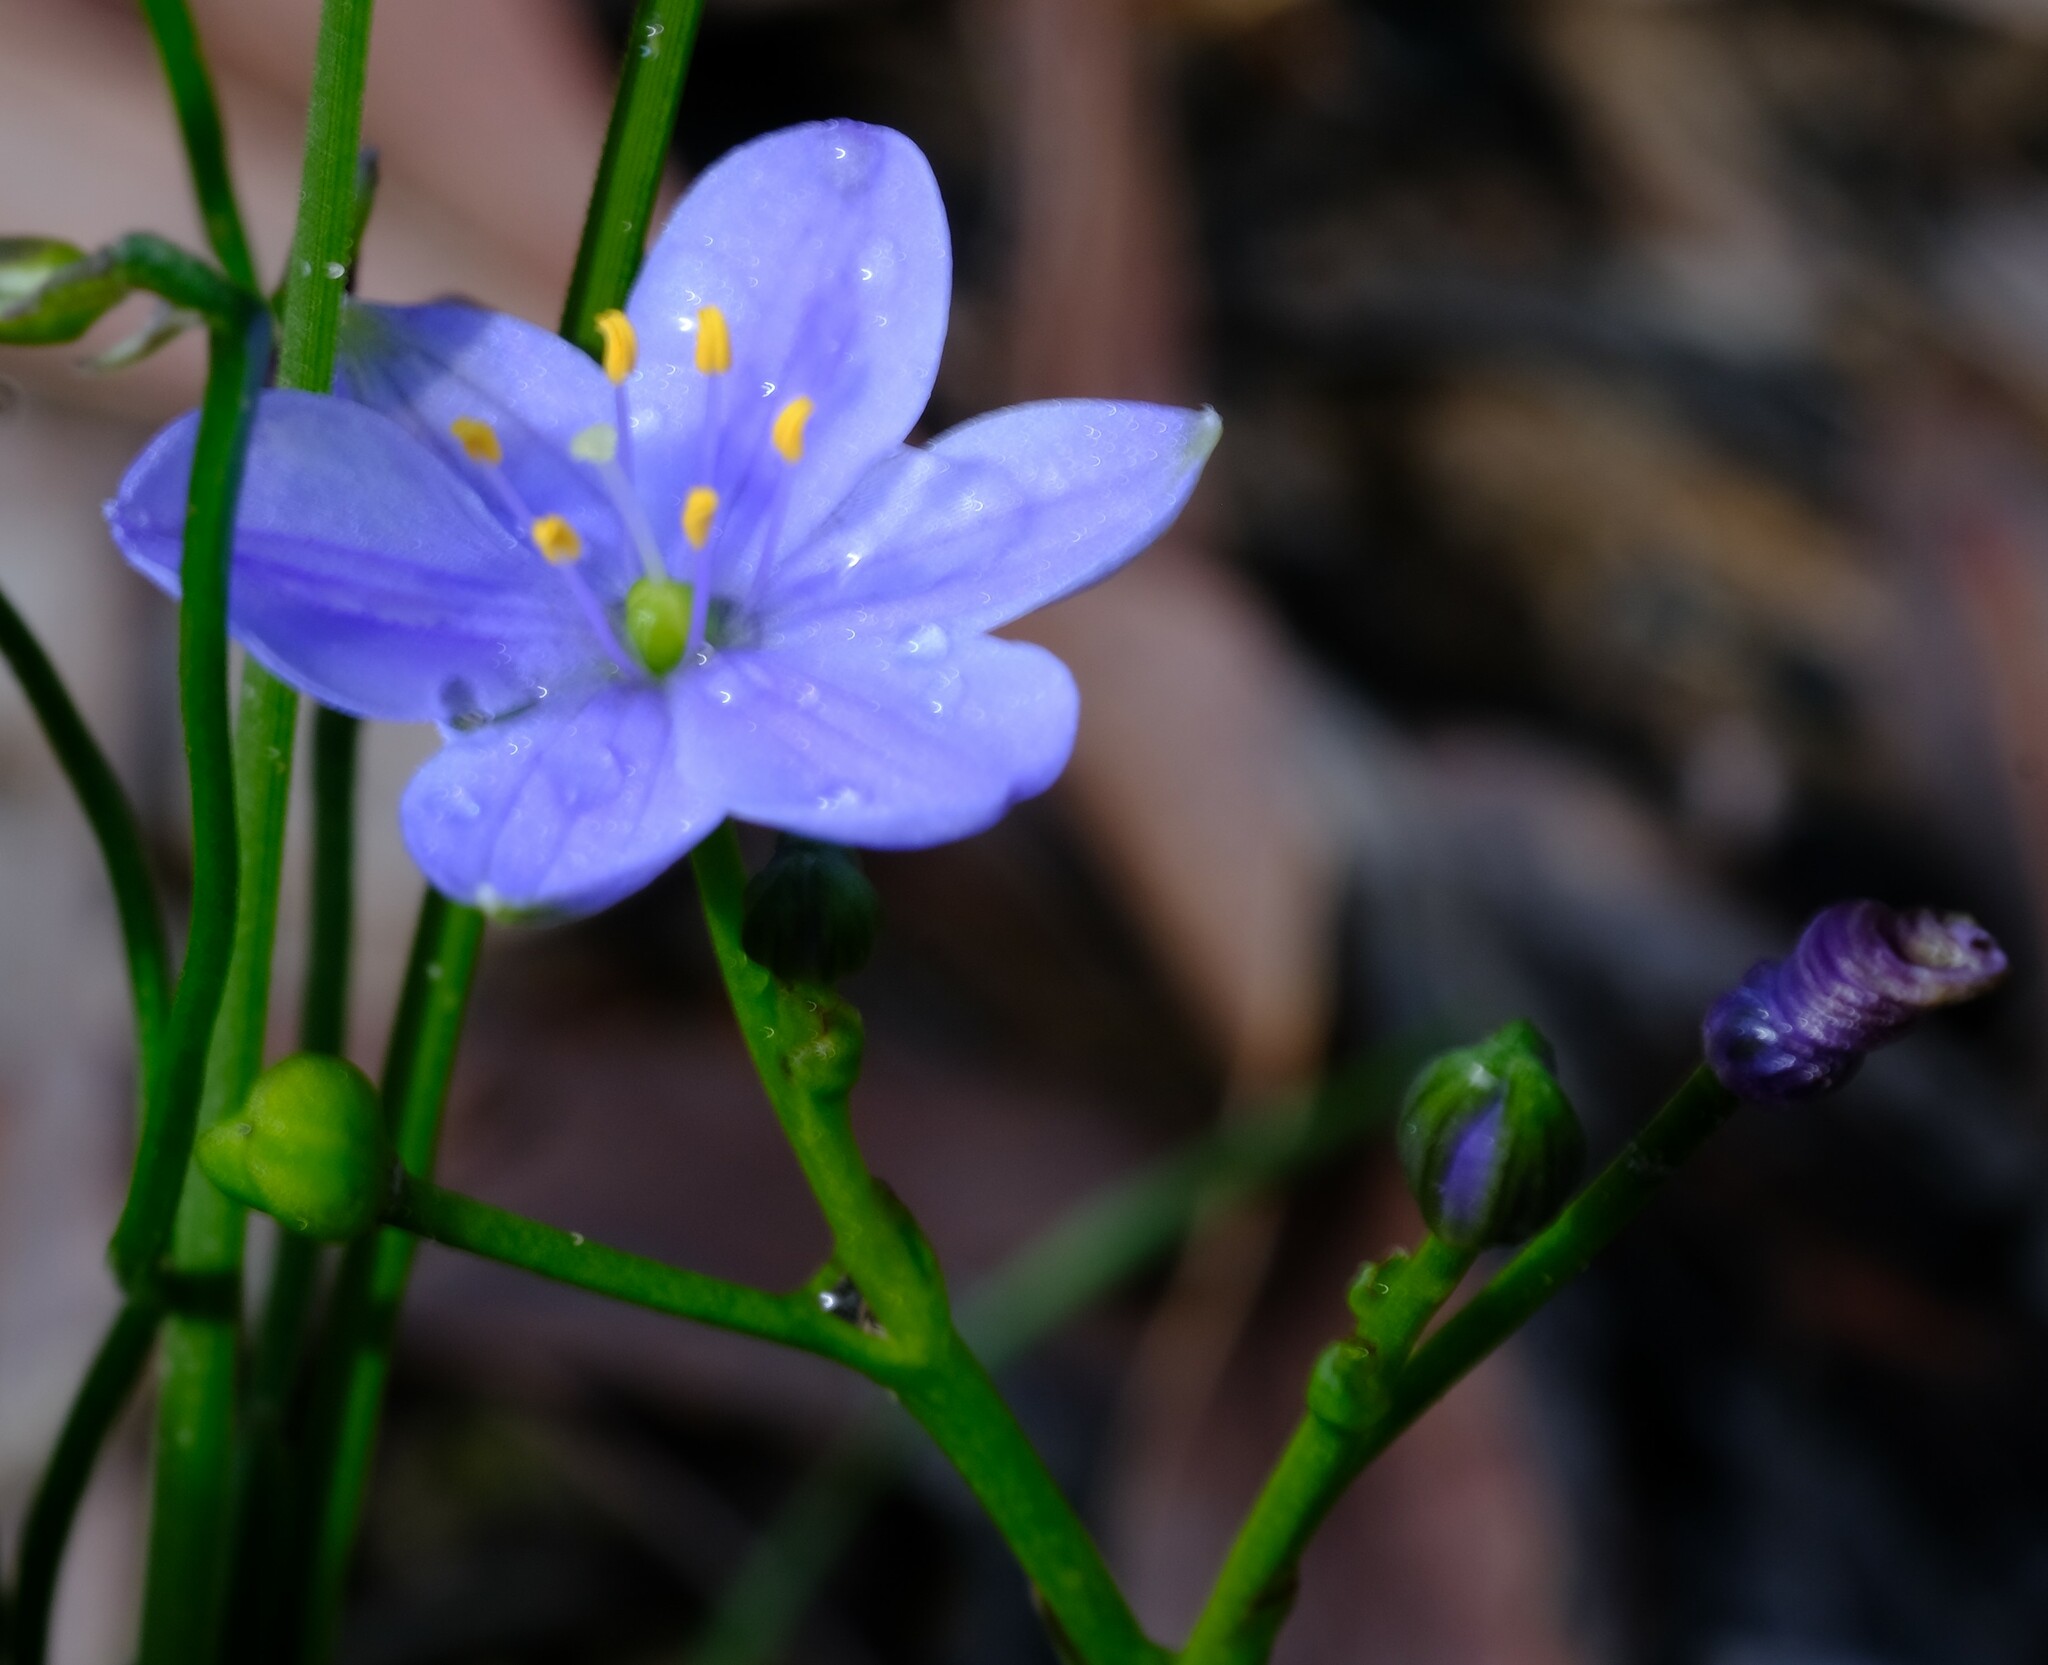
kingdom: Plantae
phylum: Tracheophyta
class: Liliopsida
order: Asparagales
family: Asphodelaceae
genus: Chamaescilla
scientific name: Chamaescilla corymbosa
